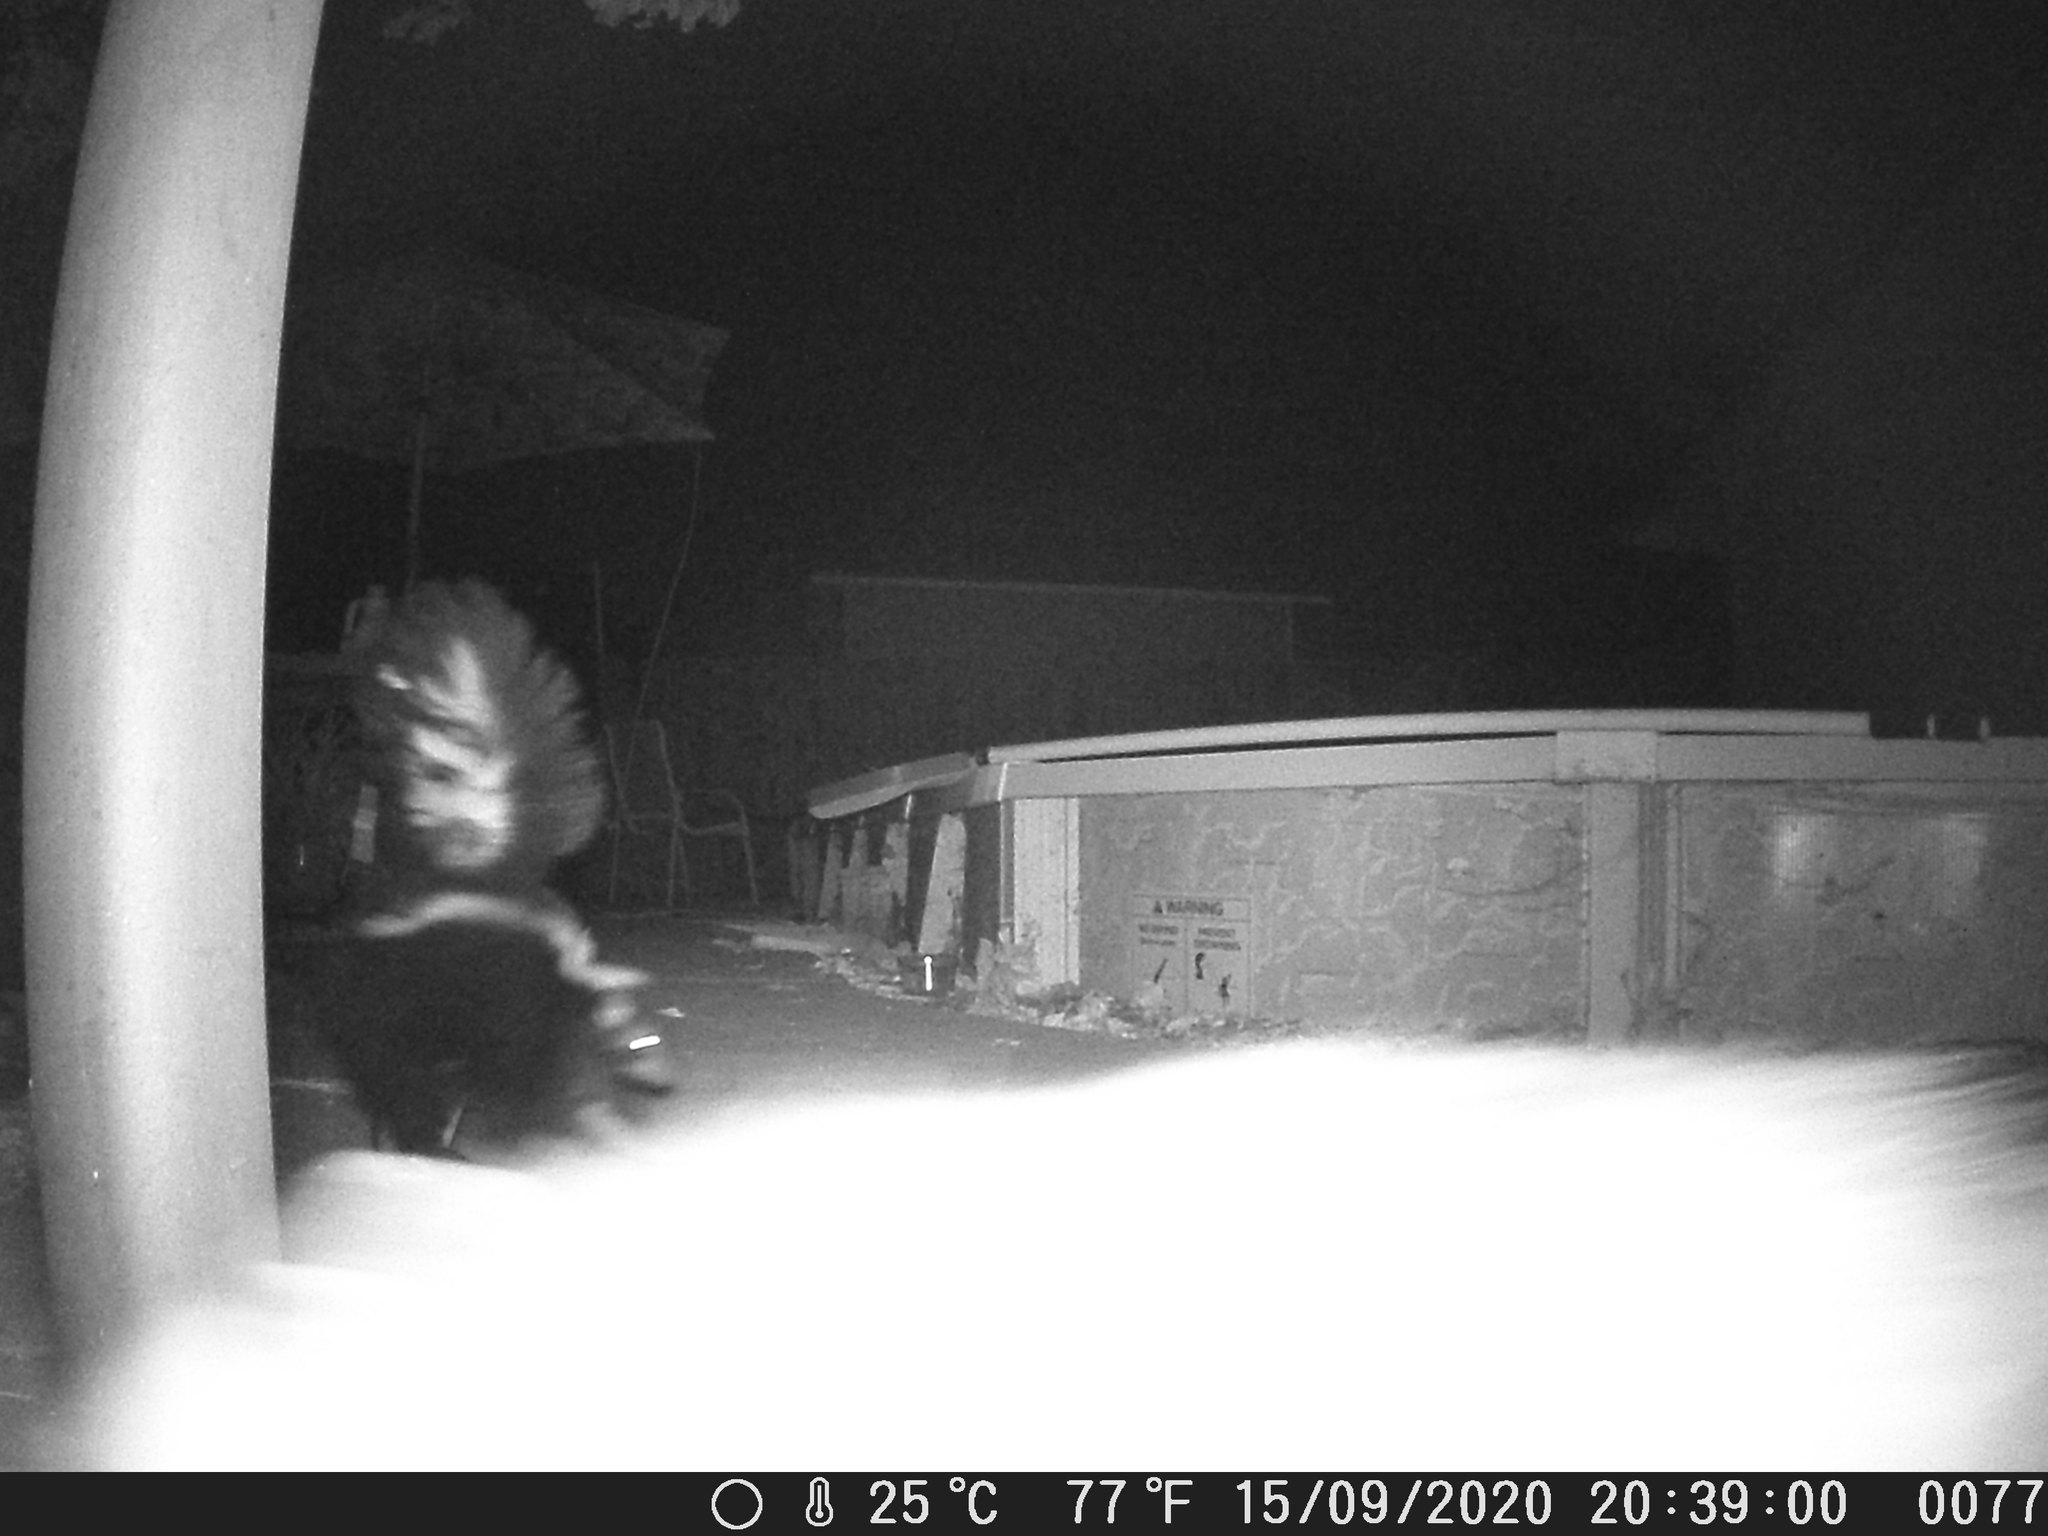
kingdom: Animalia
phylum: Chordata
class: Mammalia
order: Didelphimorphia
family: Didelphidae
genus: Didelphis
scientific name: Didelphis virginiana
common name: Virginia opossum
